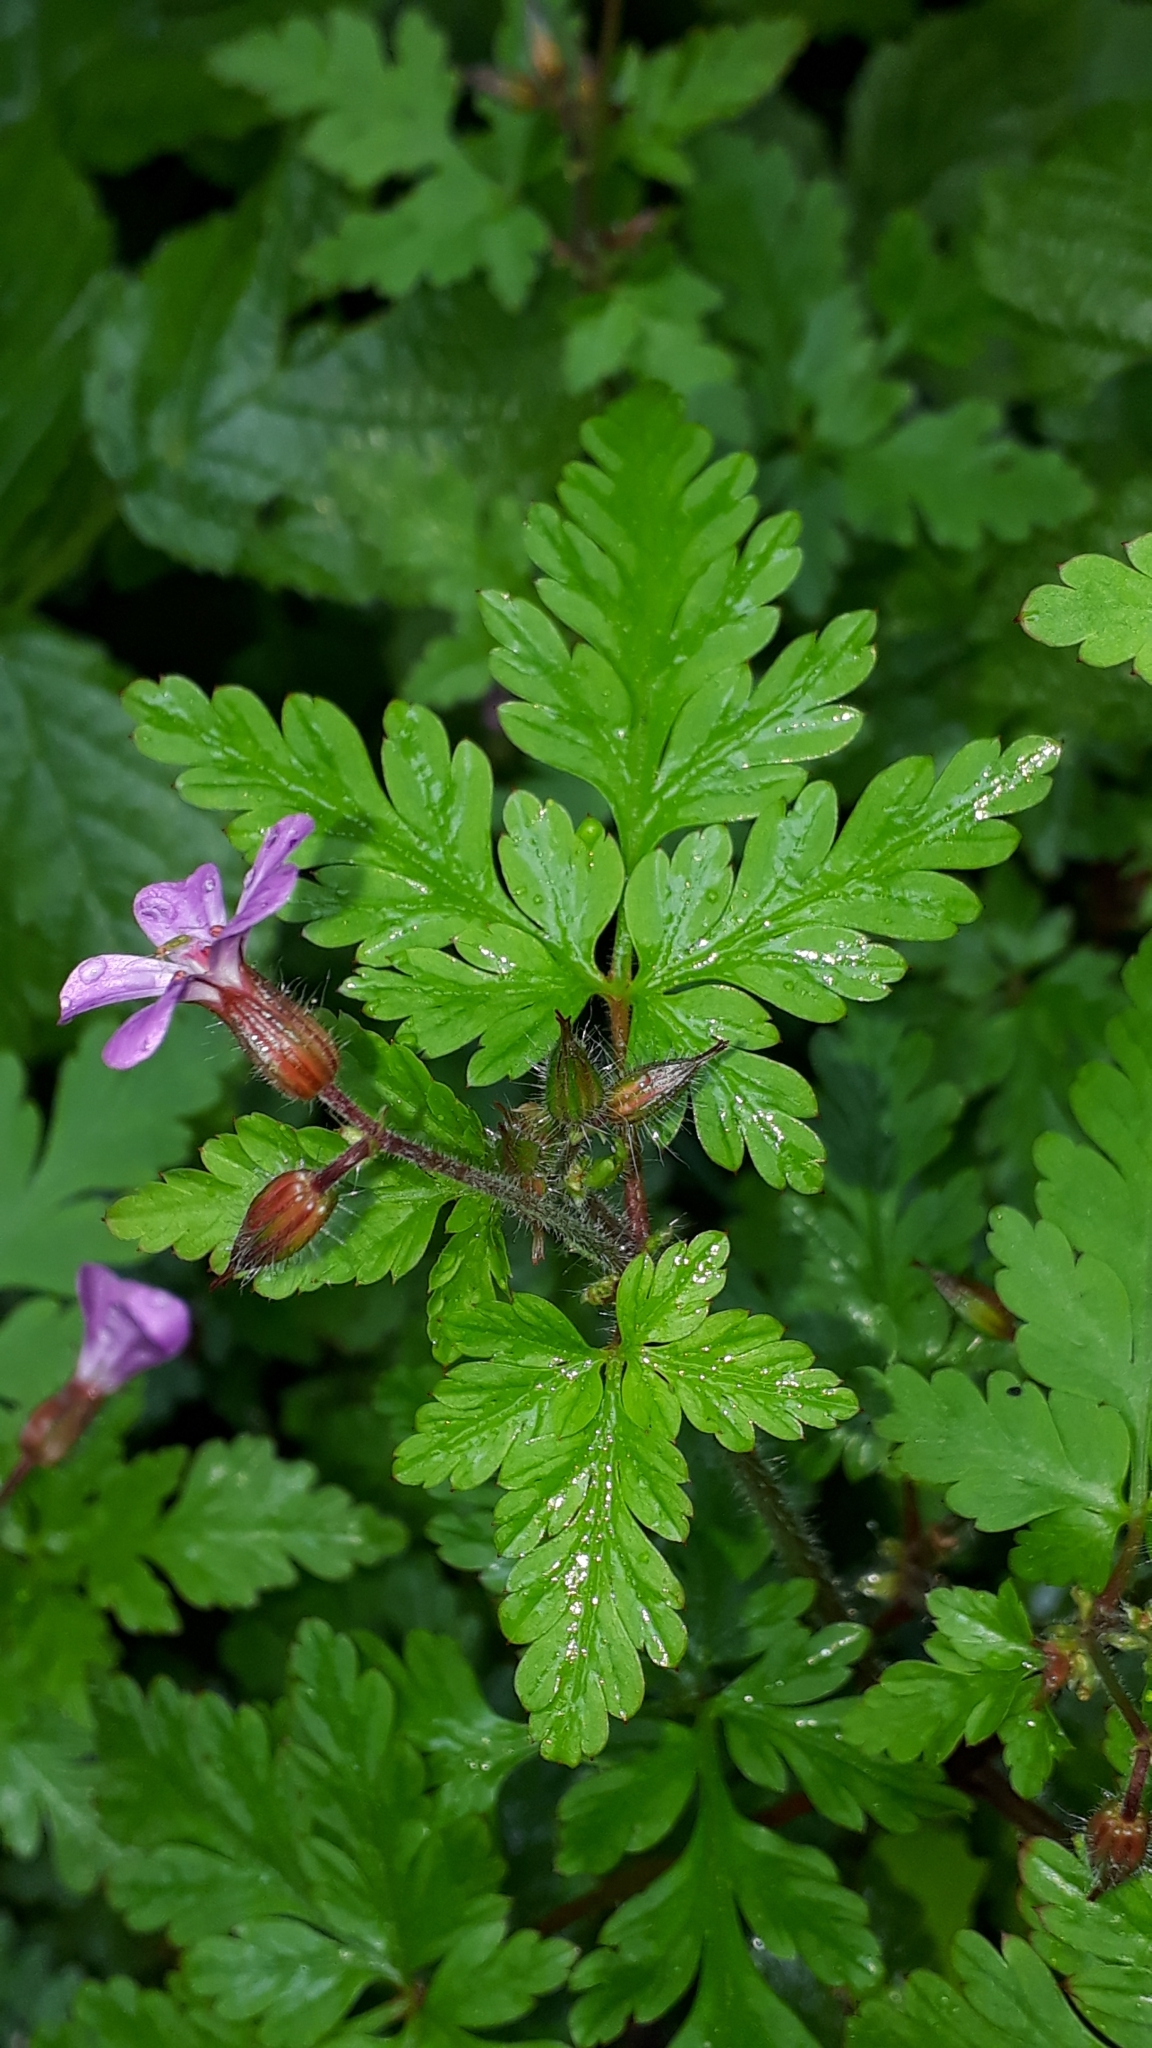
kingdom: Plantae
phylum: Tracheophyta
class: Magnoliopsida
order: Geraniales
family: Geraniaceae
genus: Geranium
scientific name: Geranium robertianum
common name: Herb-robert
